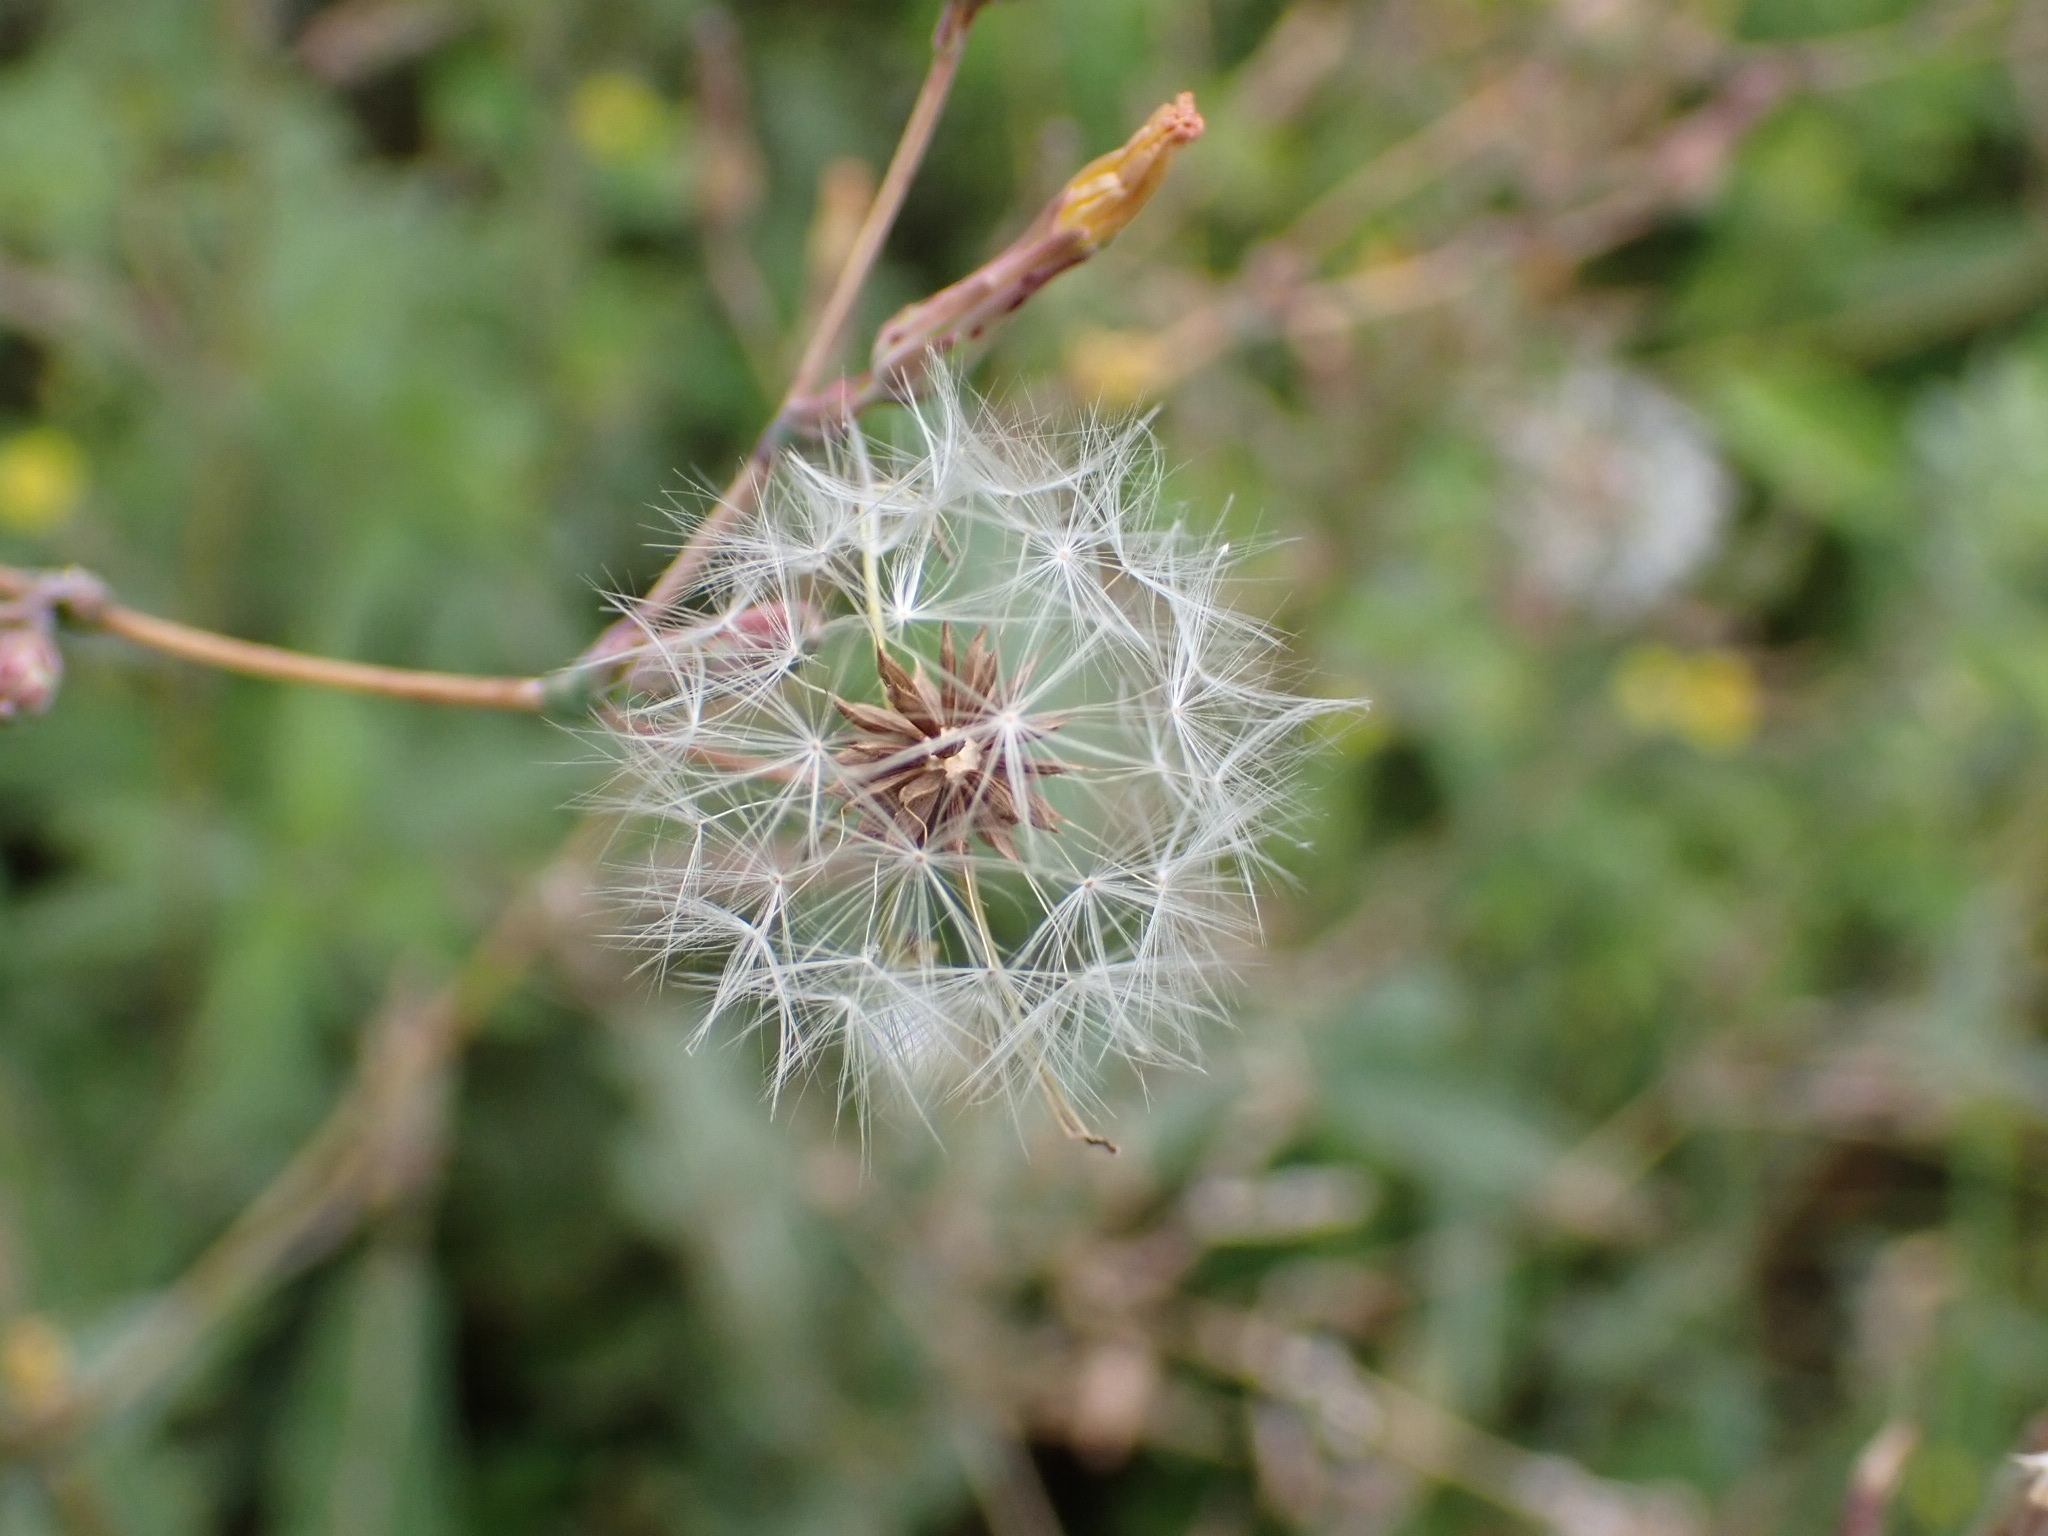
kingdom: Plantae
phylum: Tracheophyta
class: Magnoliopsida
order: Asterales
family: Asteraceae
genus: Lactuca
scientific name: Lactuca serriola
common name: Prickly lettuce
